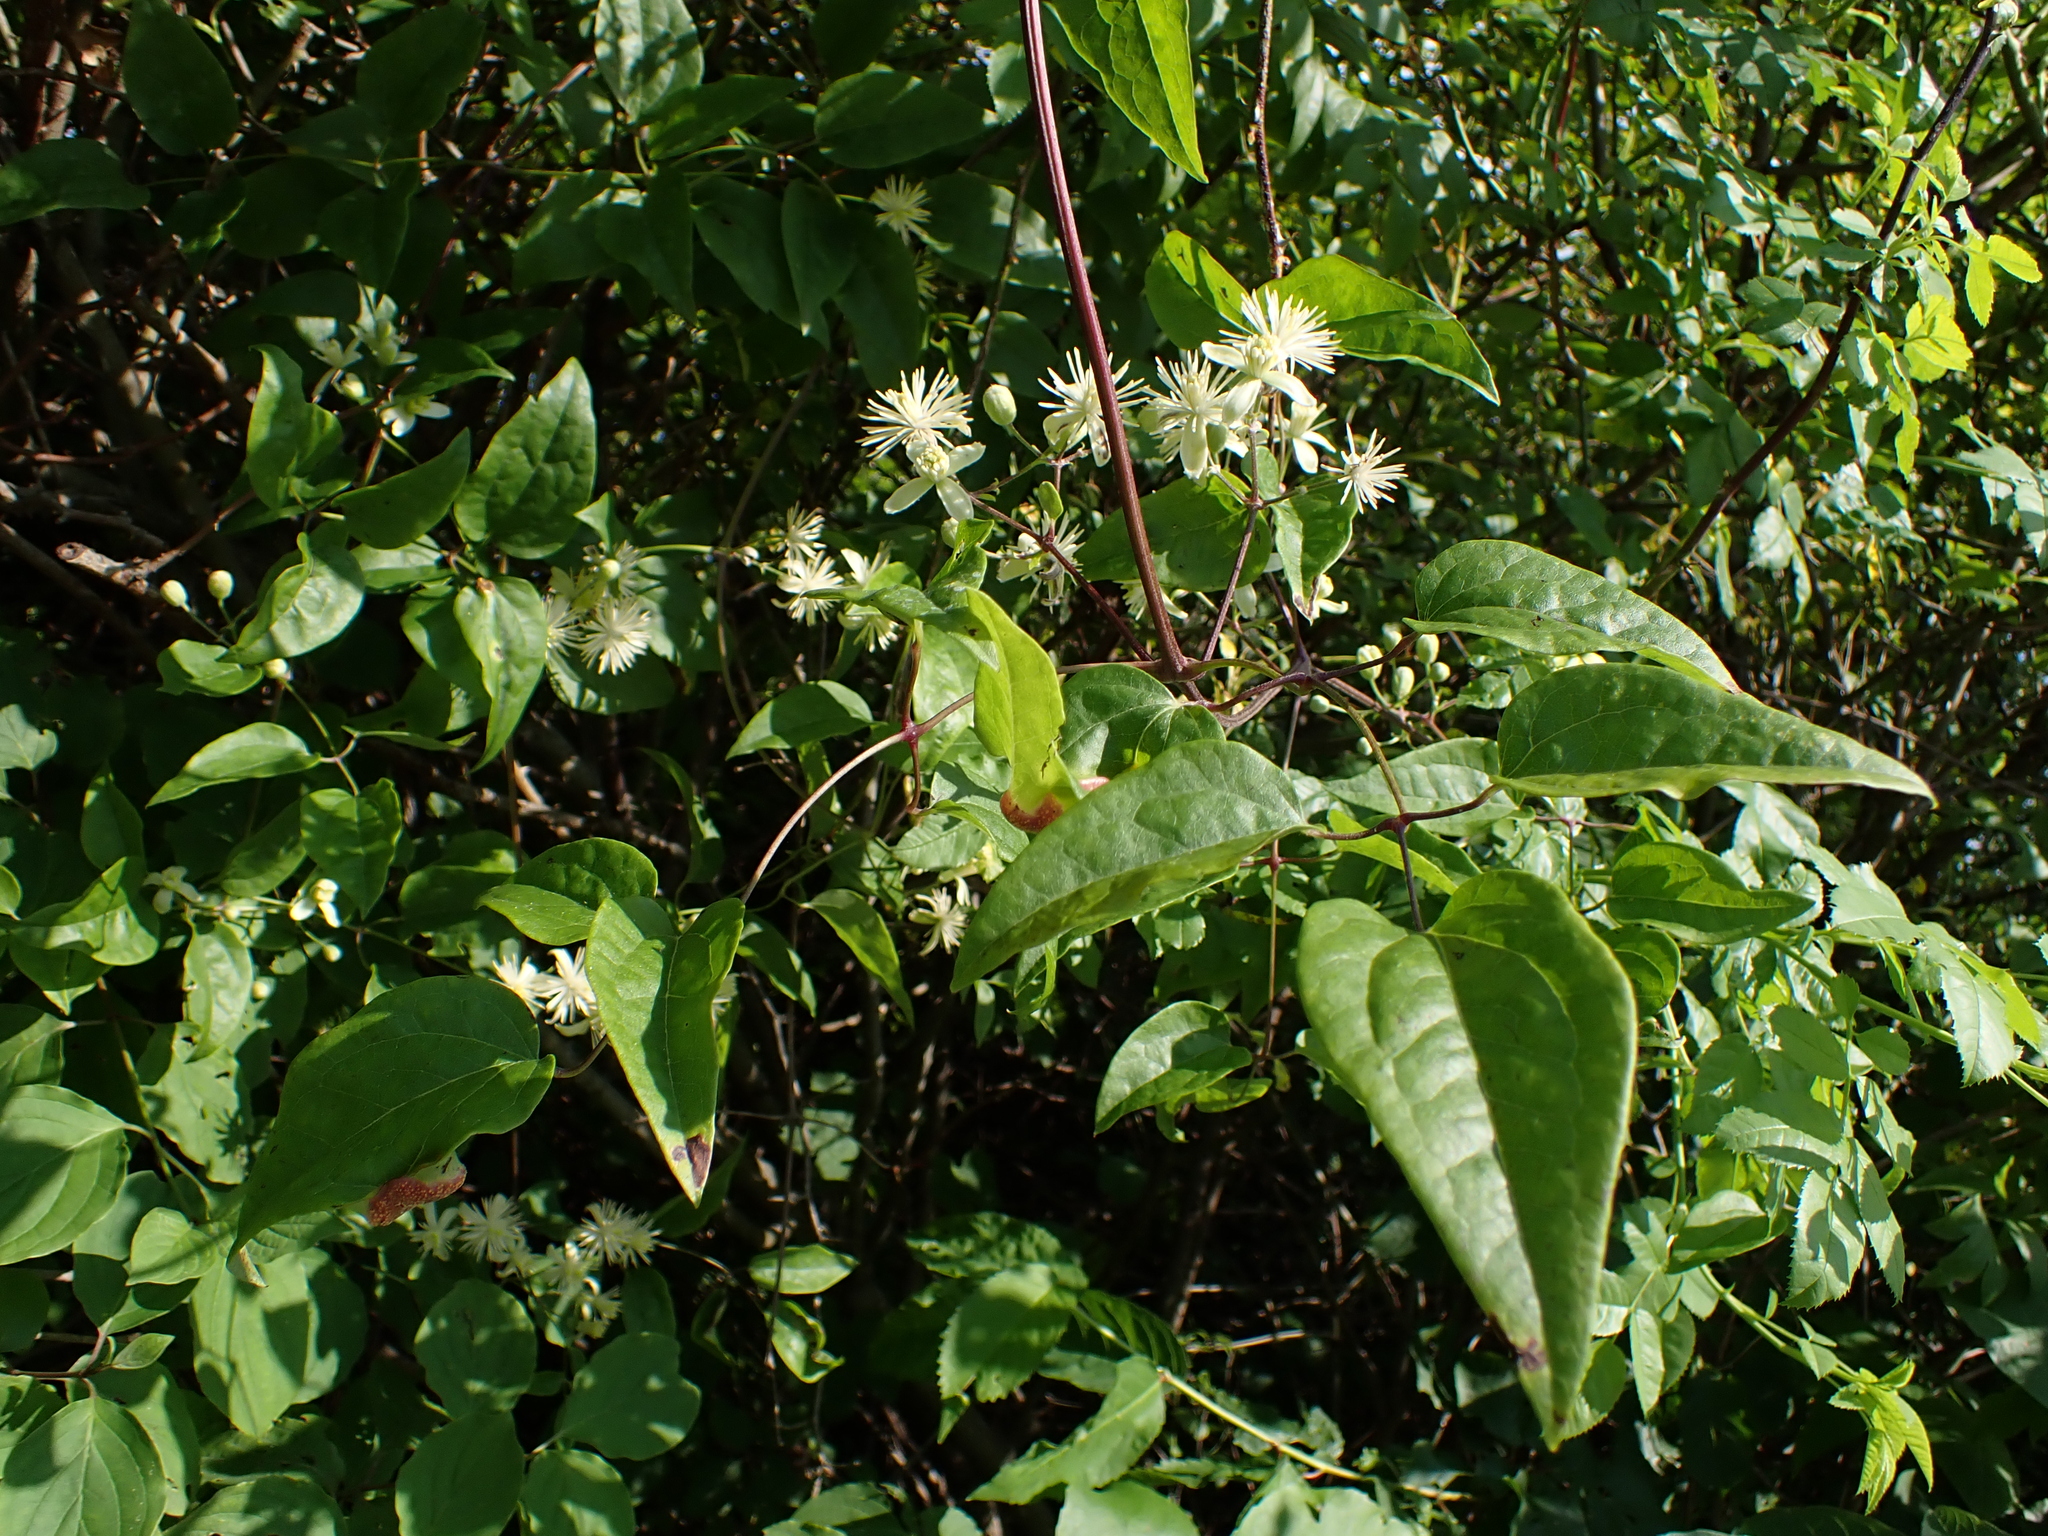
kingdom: Plantae
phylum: Tracheophyta
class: Magnoliopsida
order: Ranunculales
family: Ranunculaceae
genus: Clematis
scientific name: Clematis vitalba
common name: Evergreen clematis
